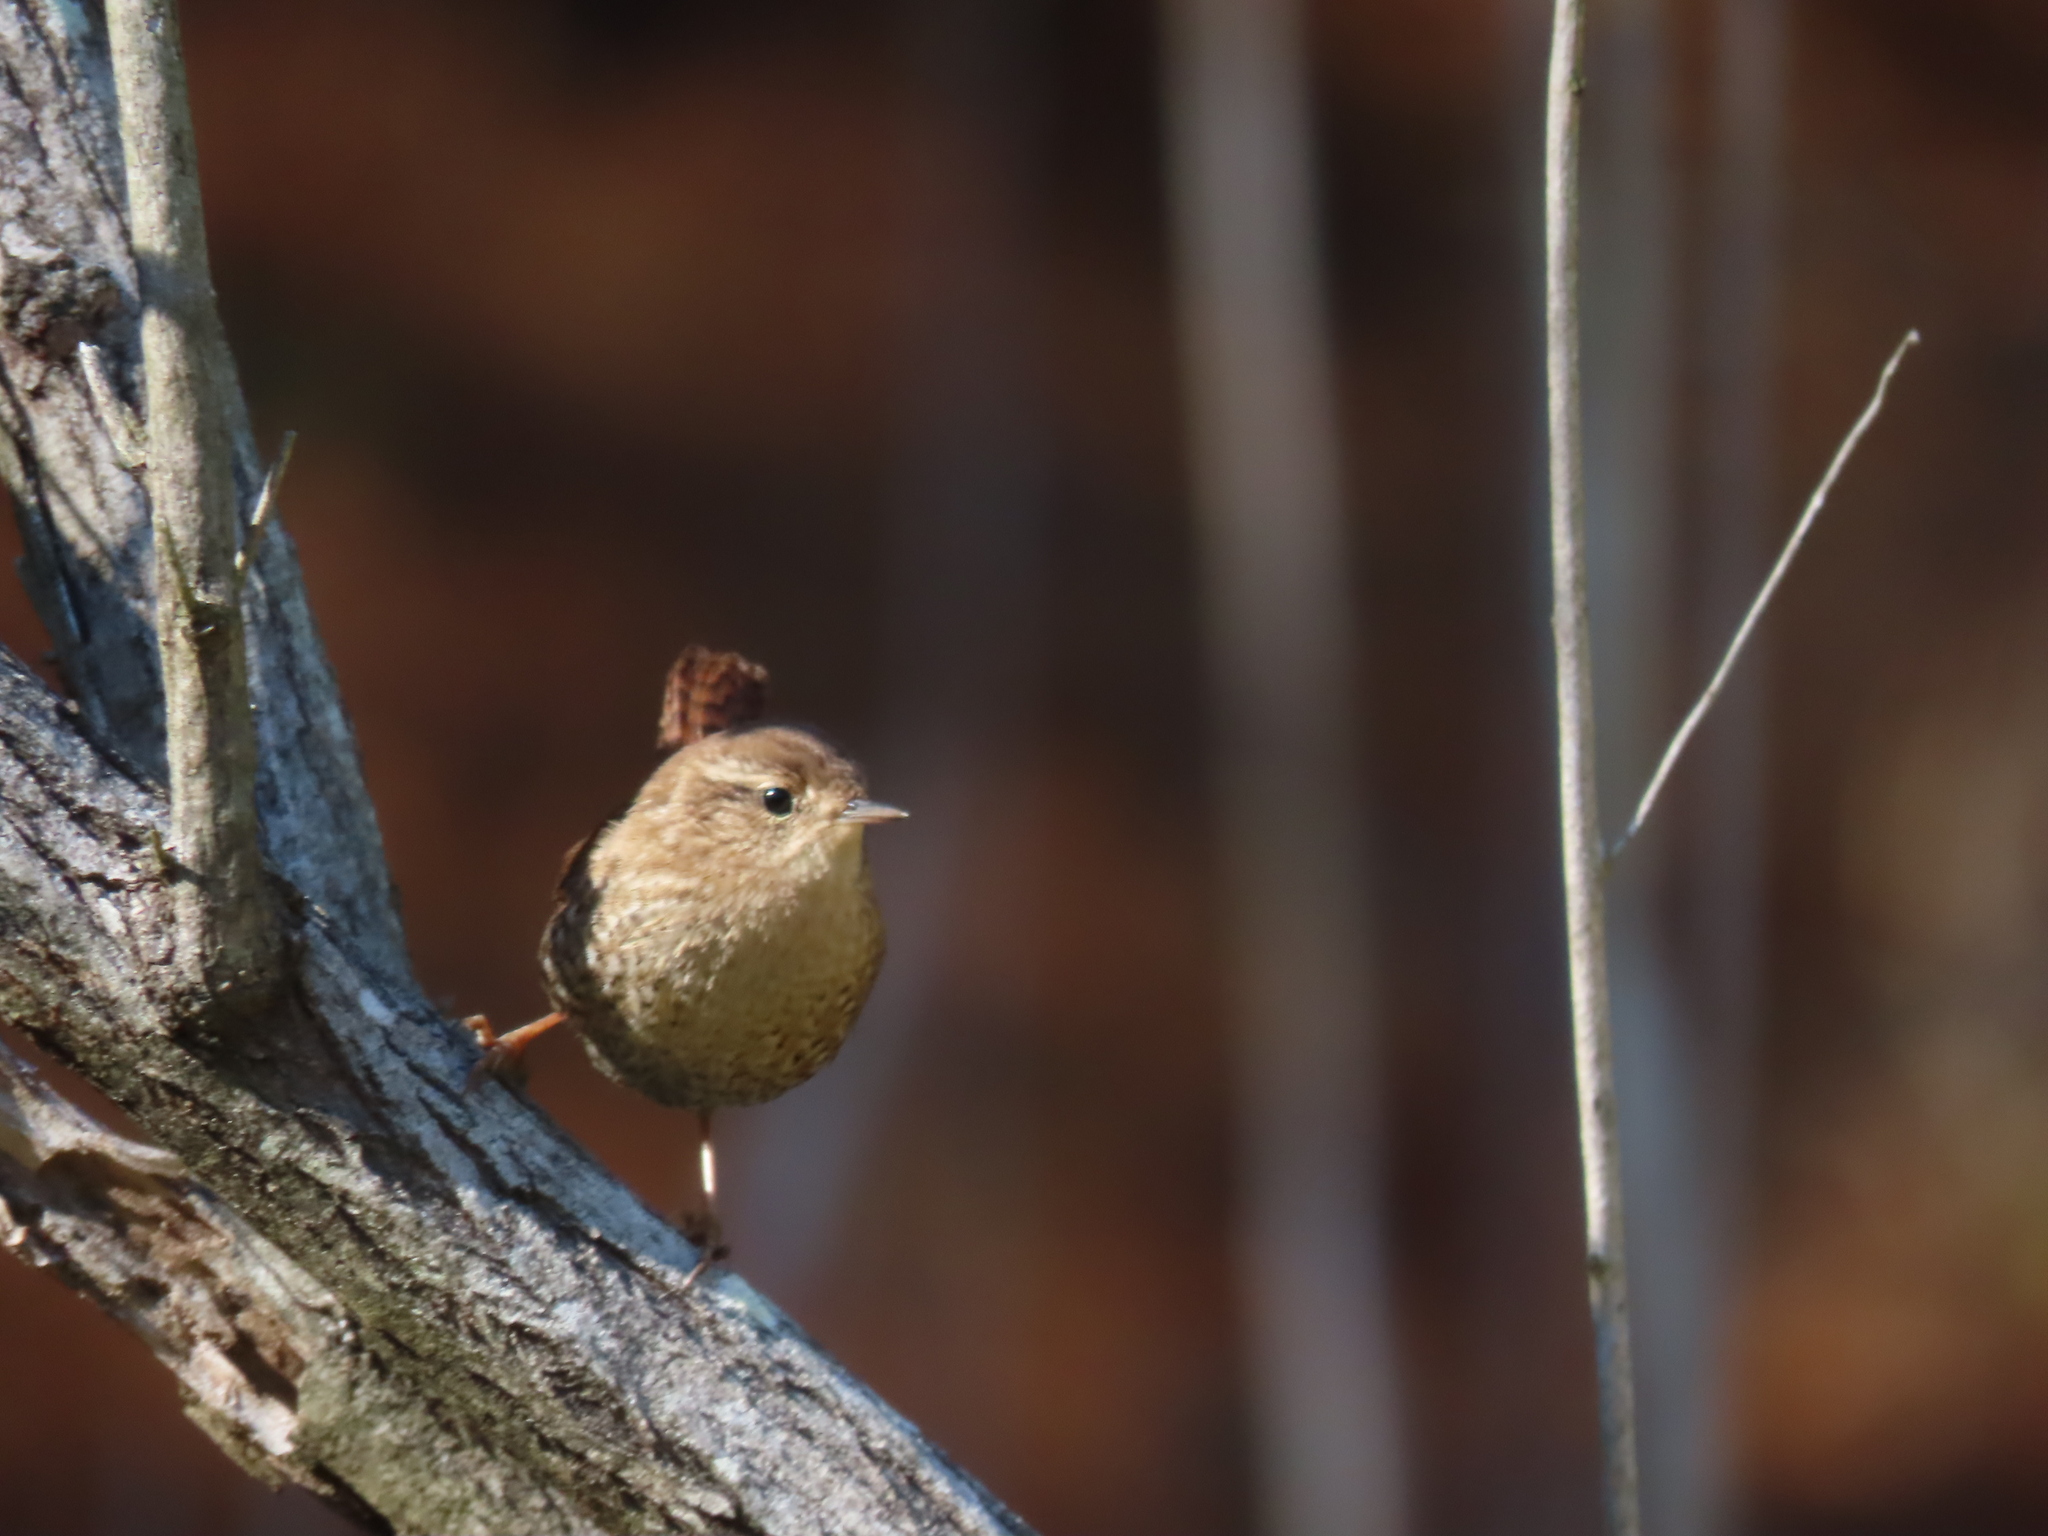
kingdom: Animalia
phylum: Chordata
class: Aves
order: Passeriformes
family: Troglodytidae
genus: Troglodytes
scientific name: Troglodytes hiemalis
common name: Winter wren
